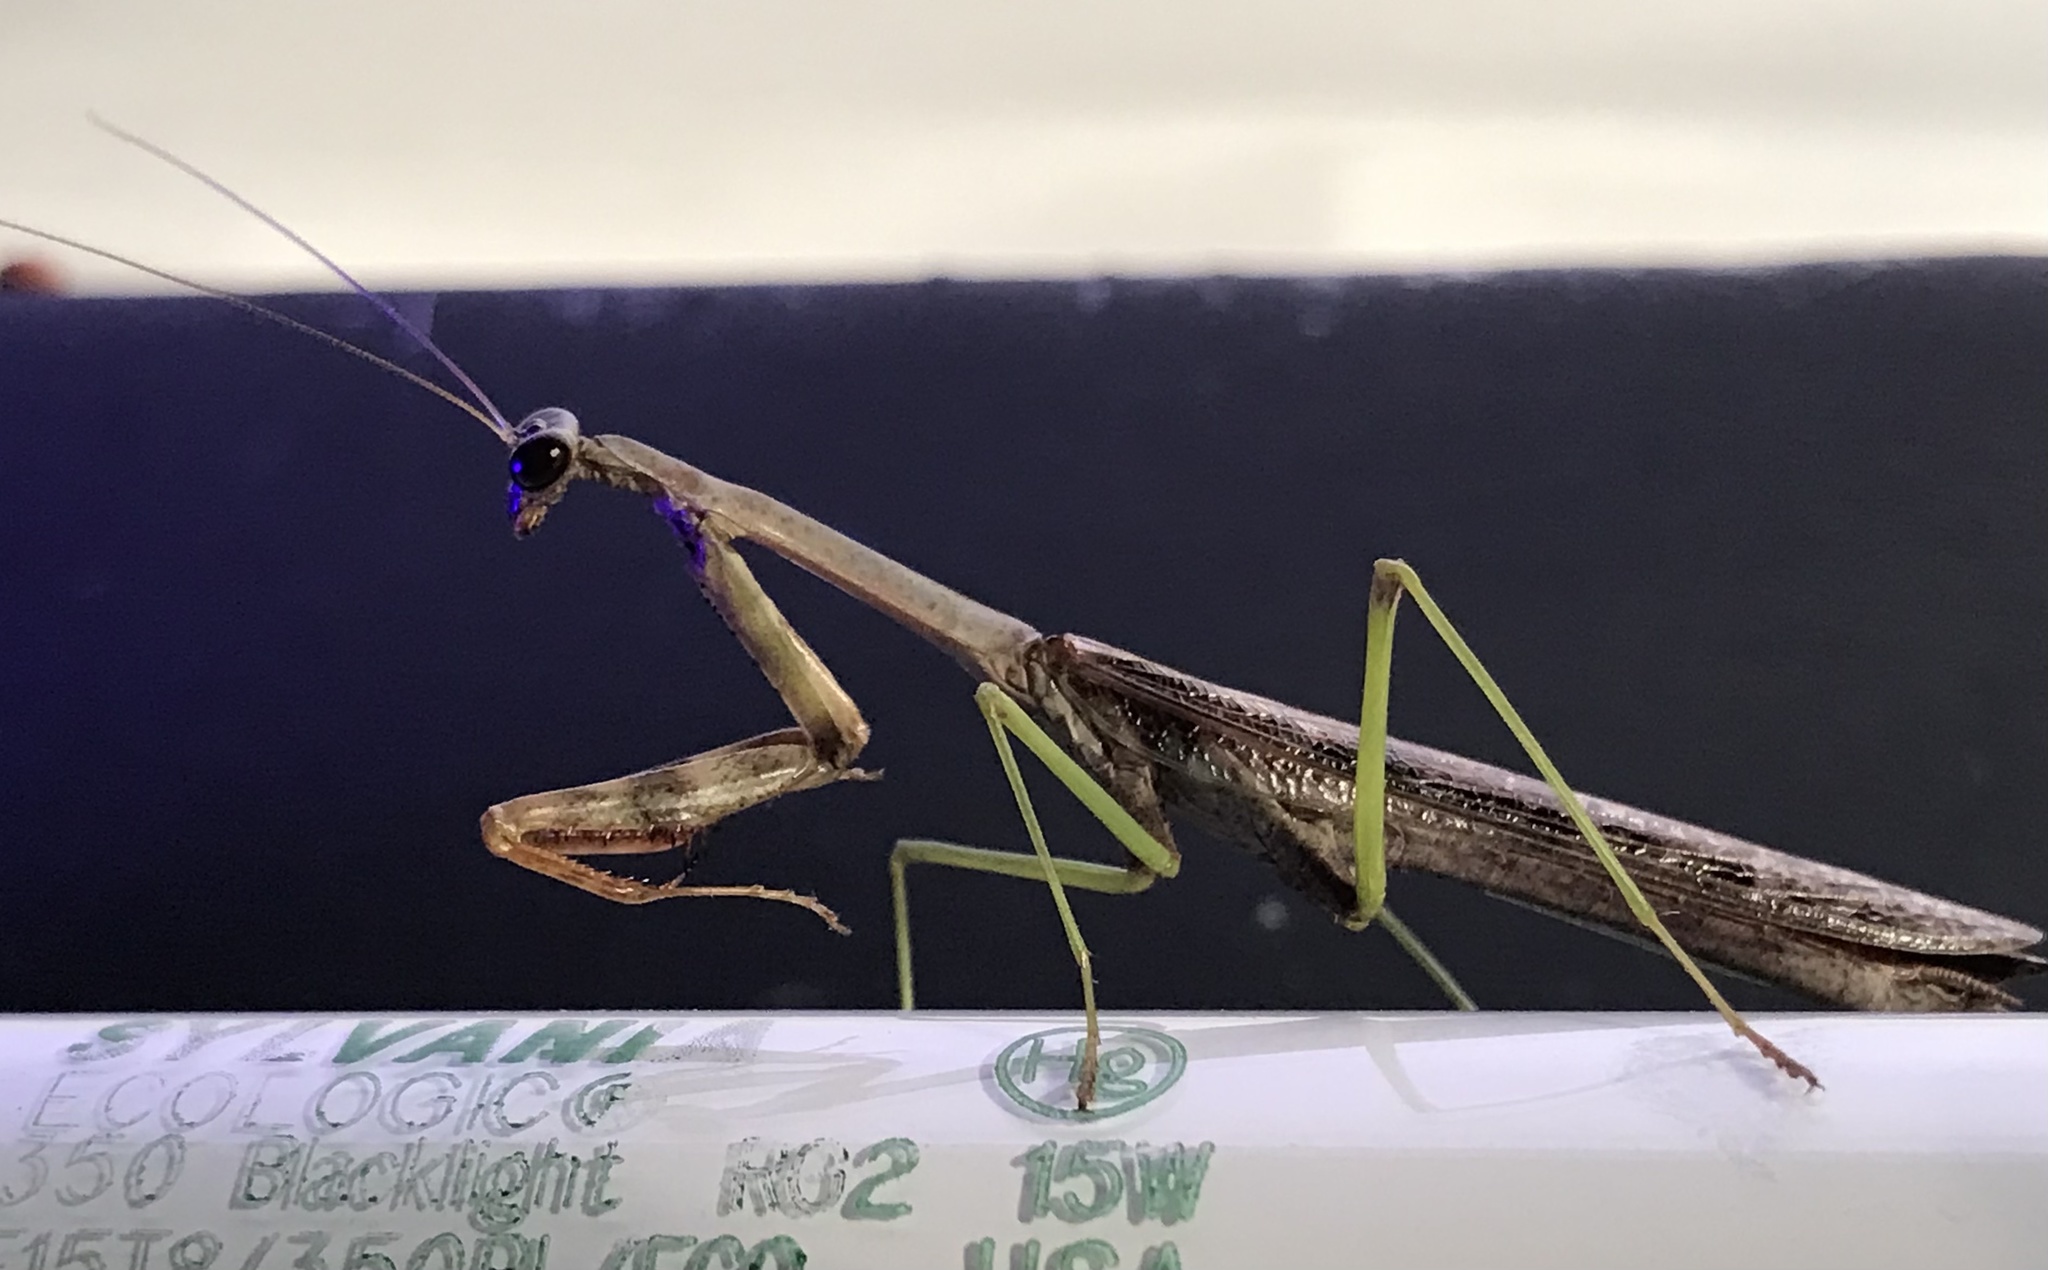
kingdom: Animalia
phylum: Arthropoda
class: Insecta
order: Mantodea
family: Mantidae
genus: Stagmomantis
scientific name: Stagmomantis carolina
